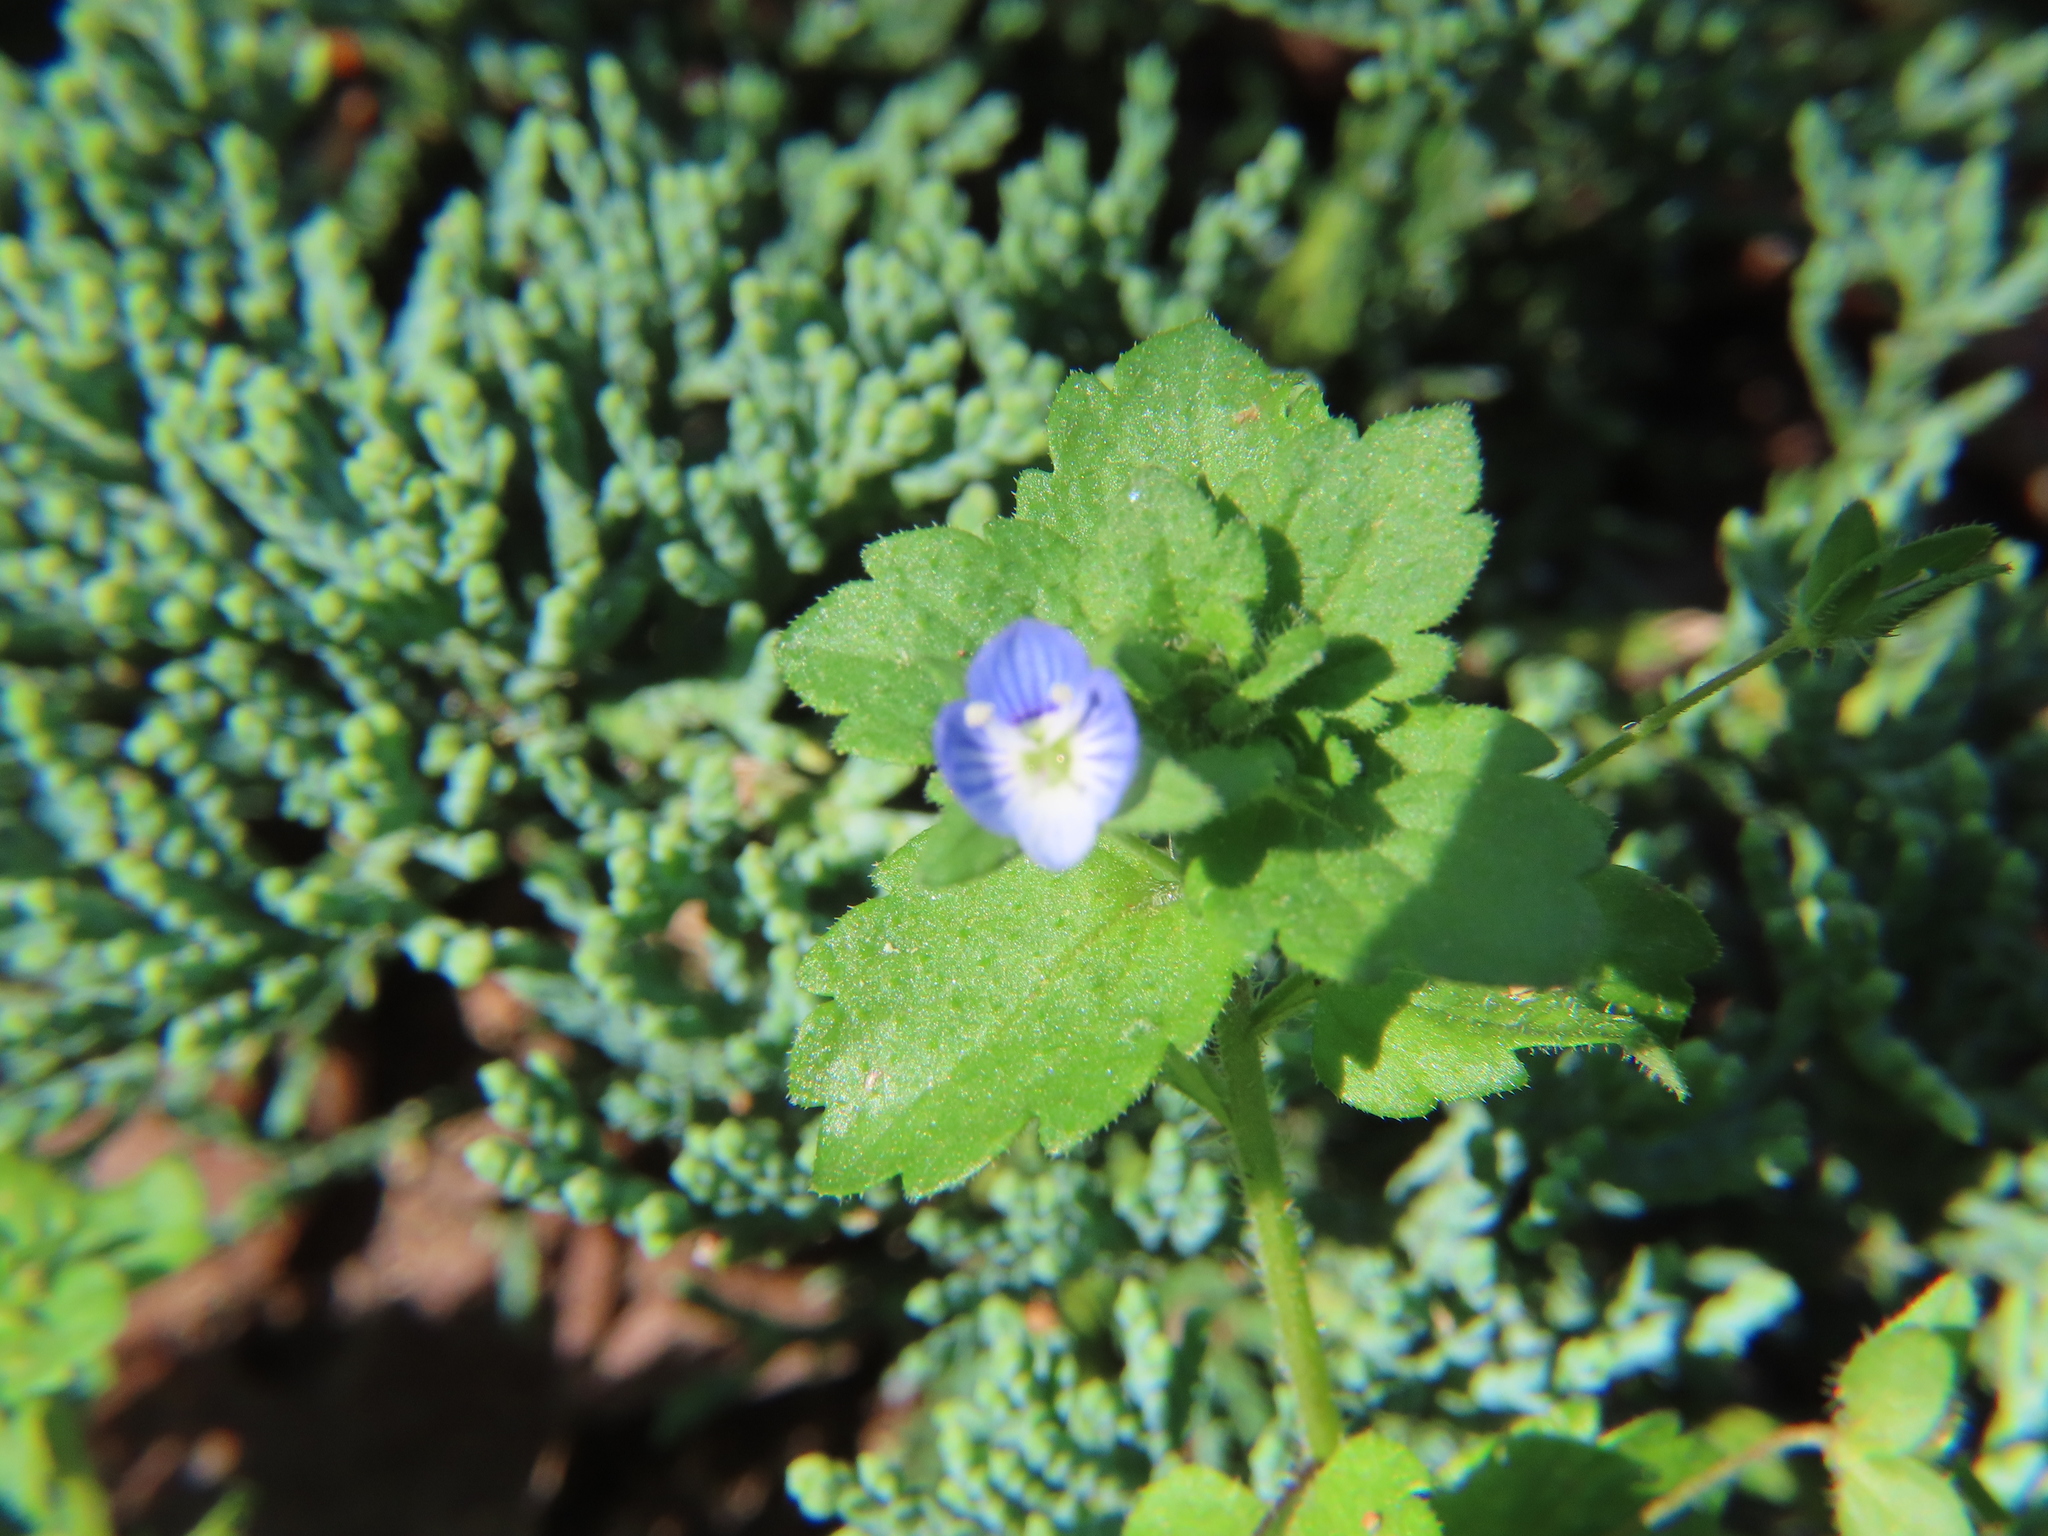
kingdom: Plantae
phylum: Tracheophyta
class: Magnoliopsida
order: Lamiales
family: Plantaginaceae
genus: Veronica
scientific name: Veronica persica
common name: Common field-speedwell
